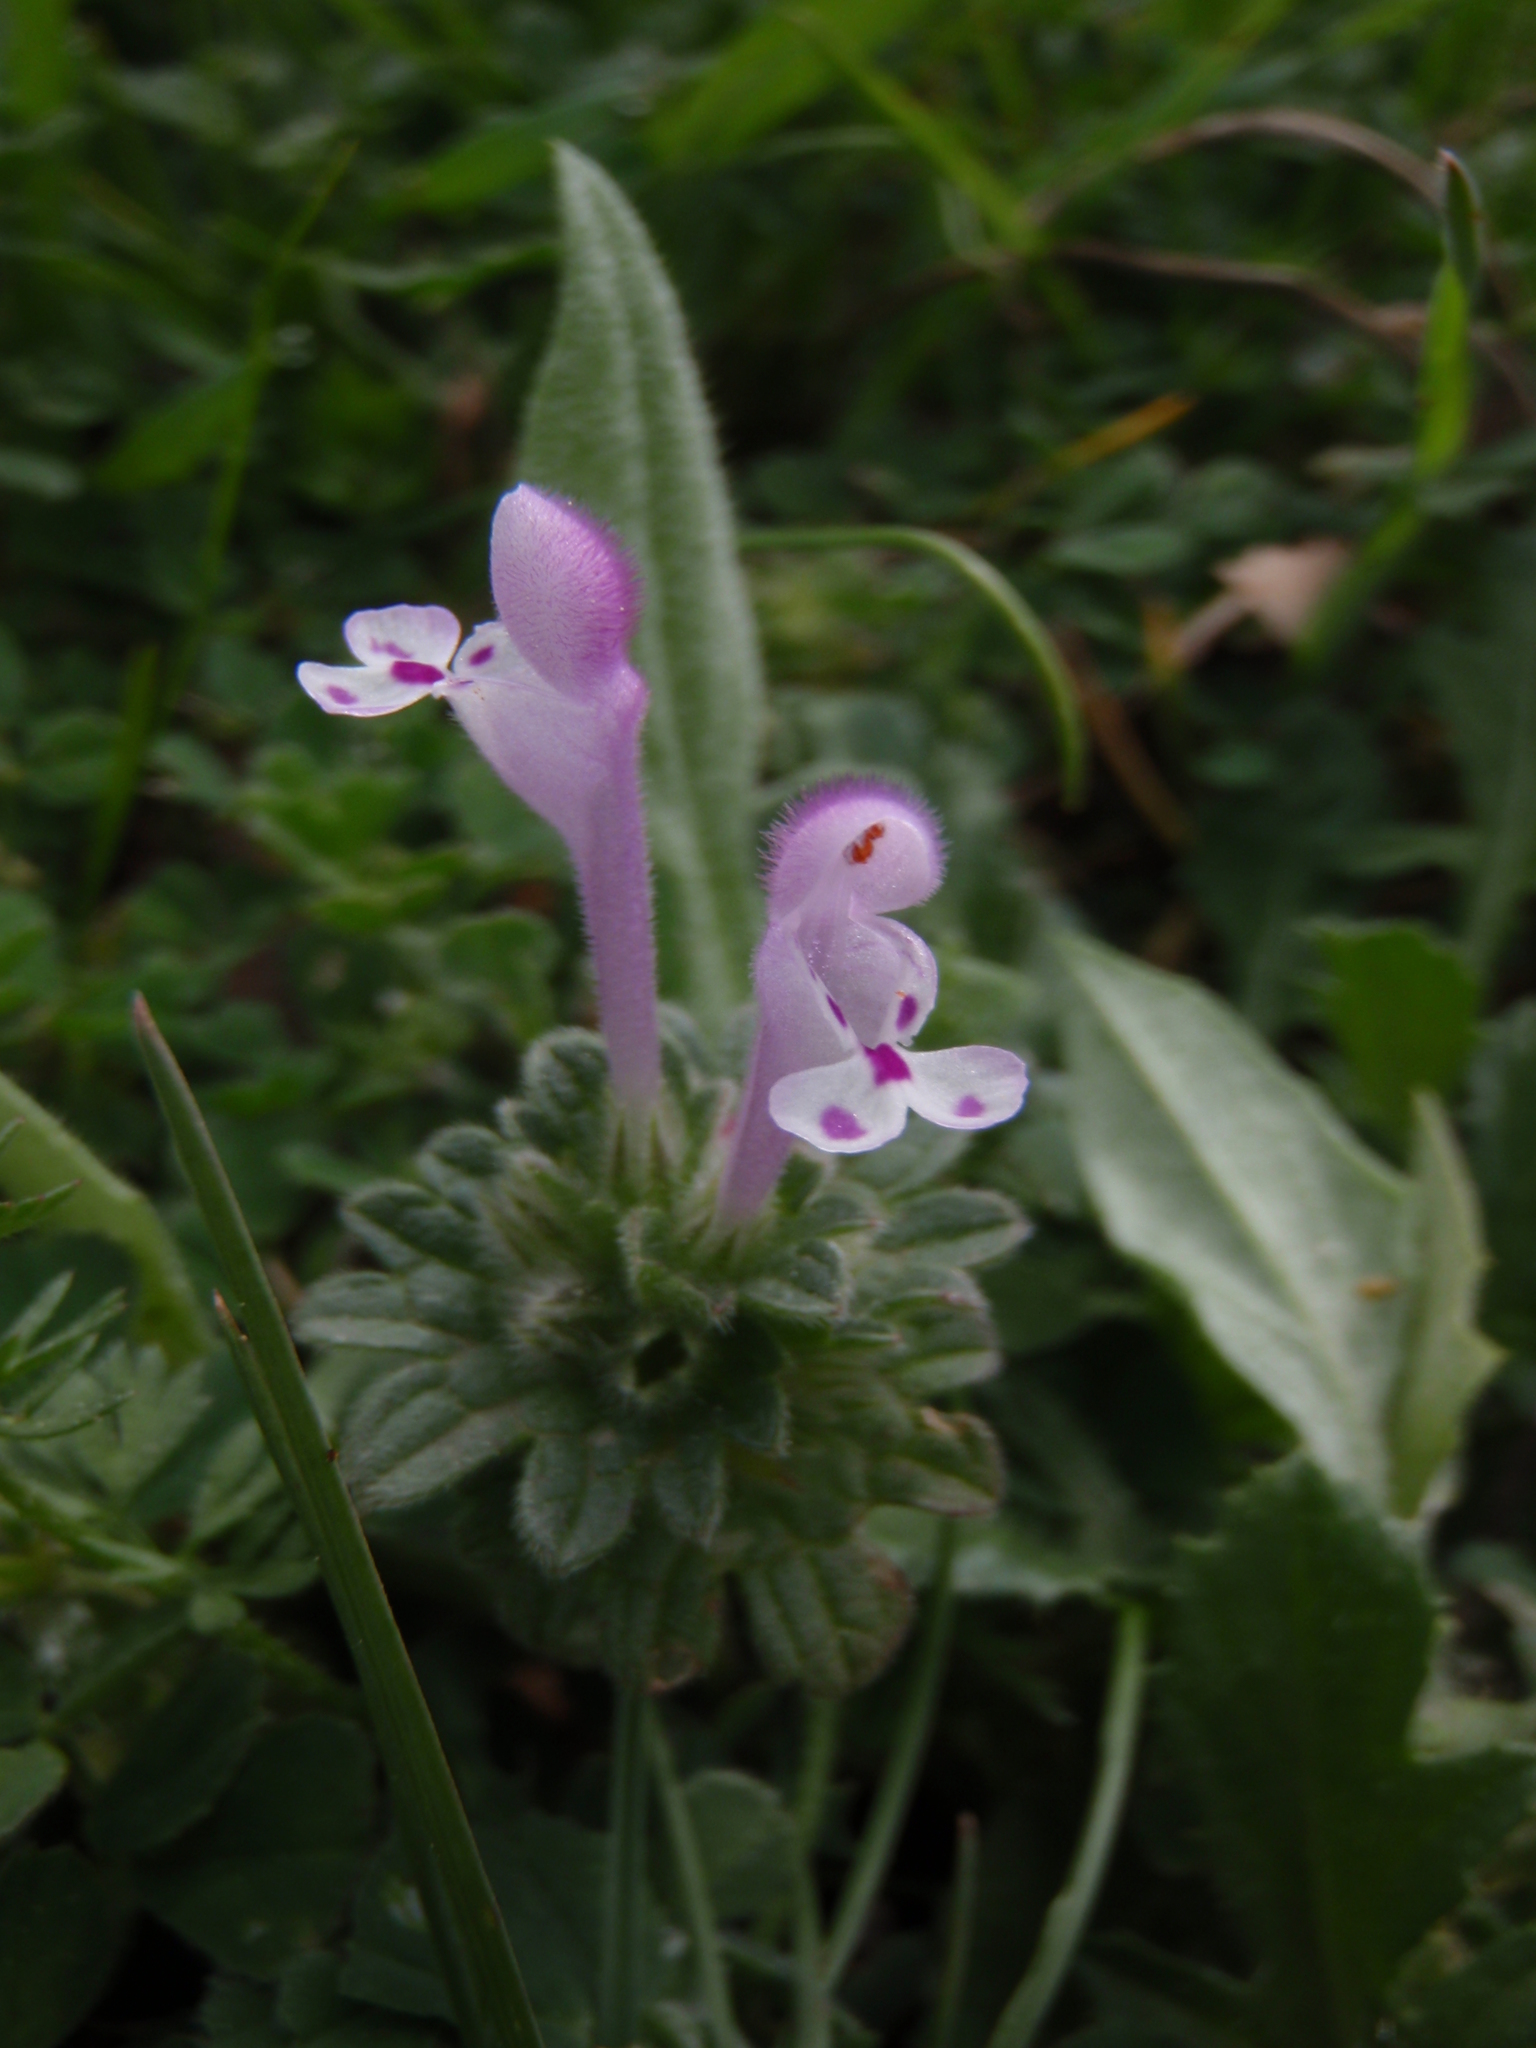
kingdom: Plantae
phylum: Tracheophyta
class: Magnoliopsida
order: Lamiales
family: Lamiaceae
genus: Lamium
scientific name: Lamium amplexicaule
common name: Henbit dead-nettle
